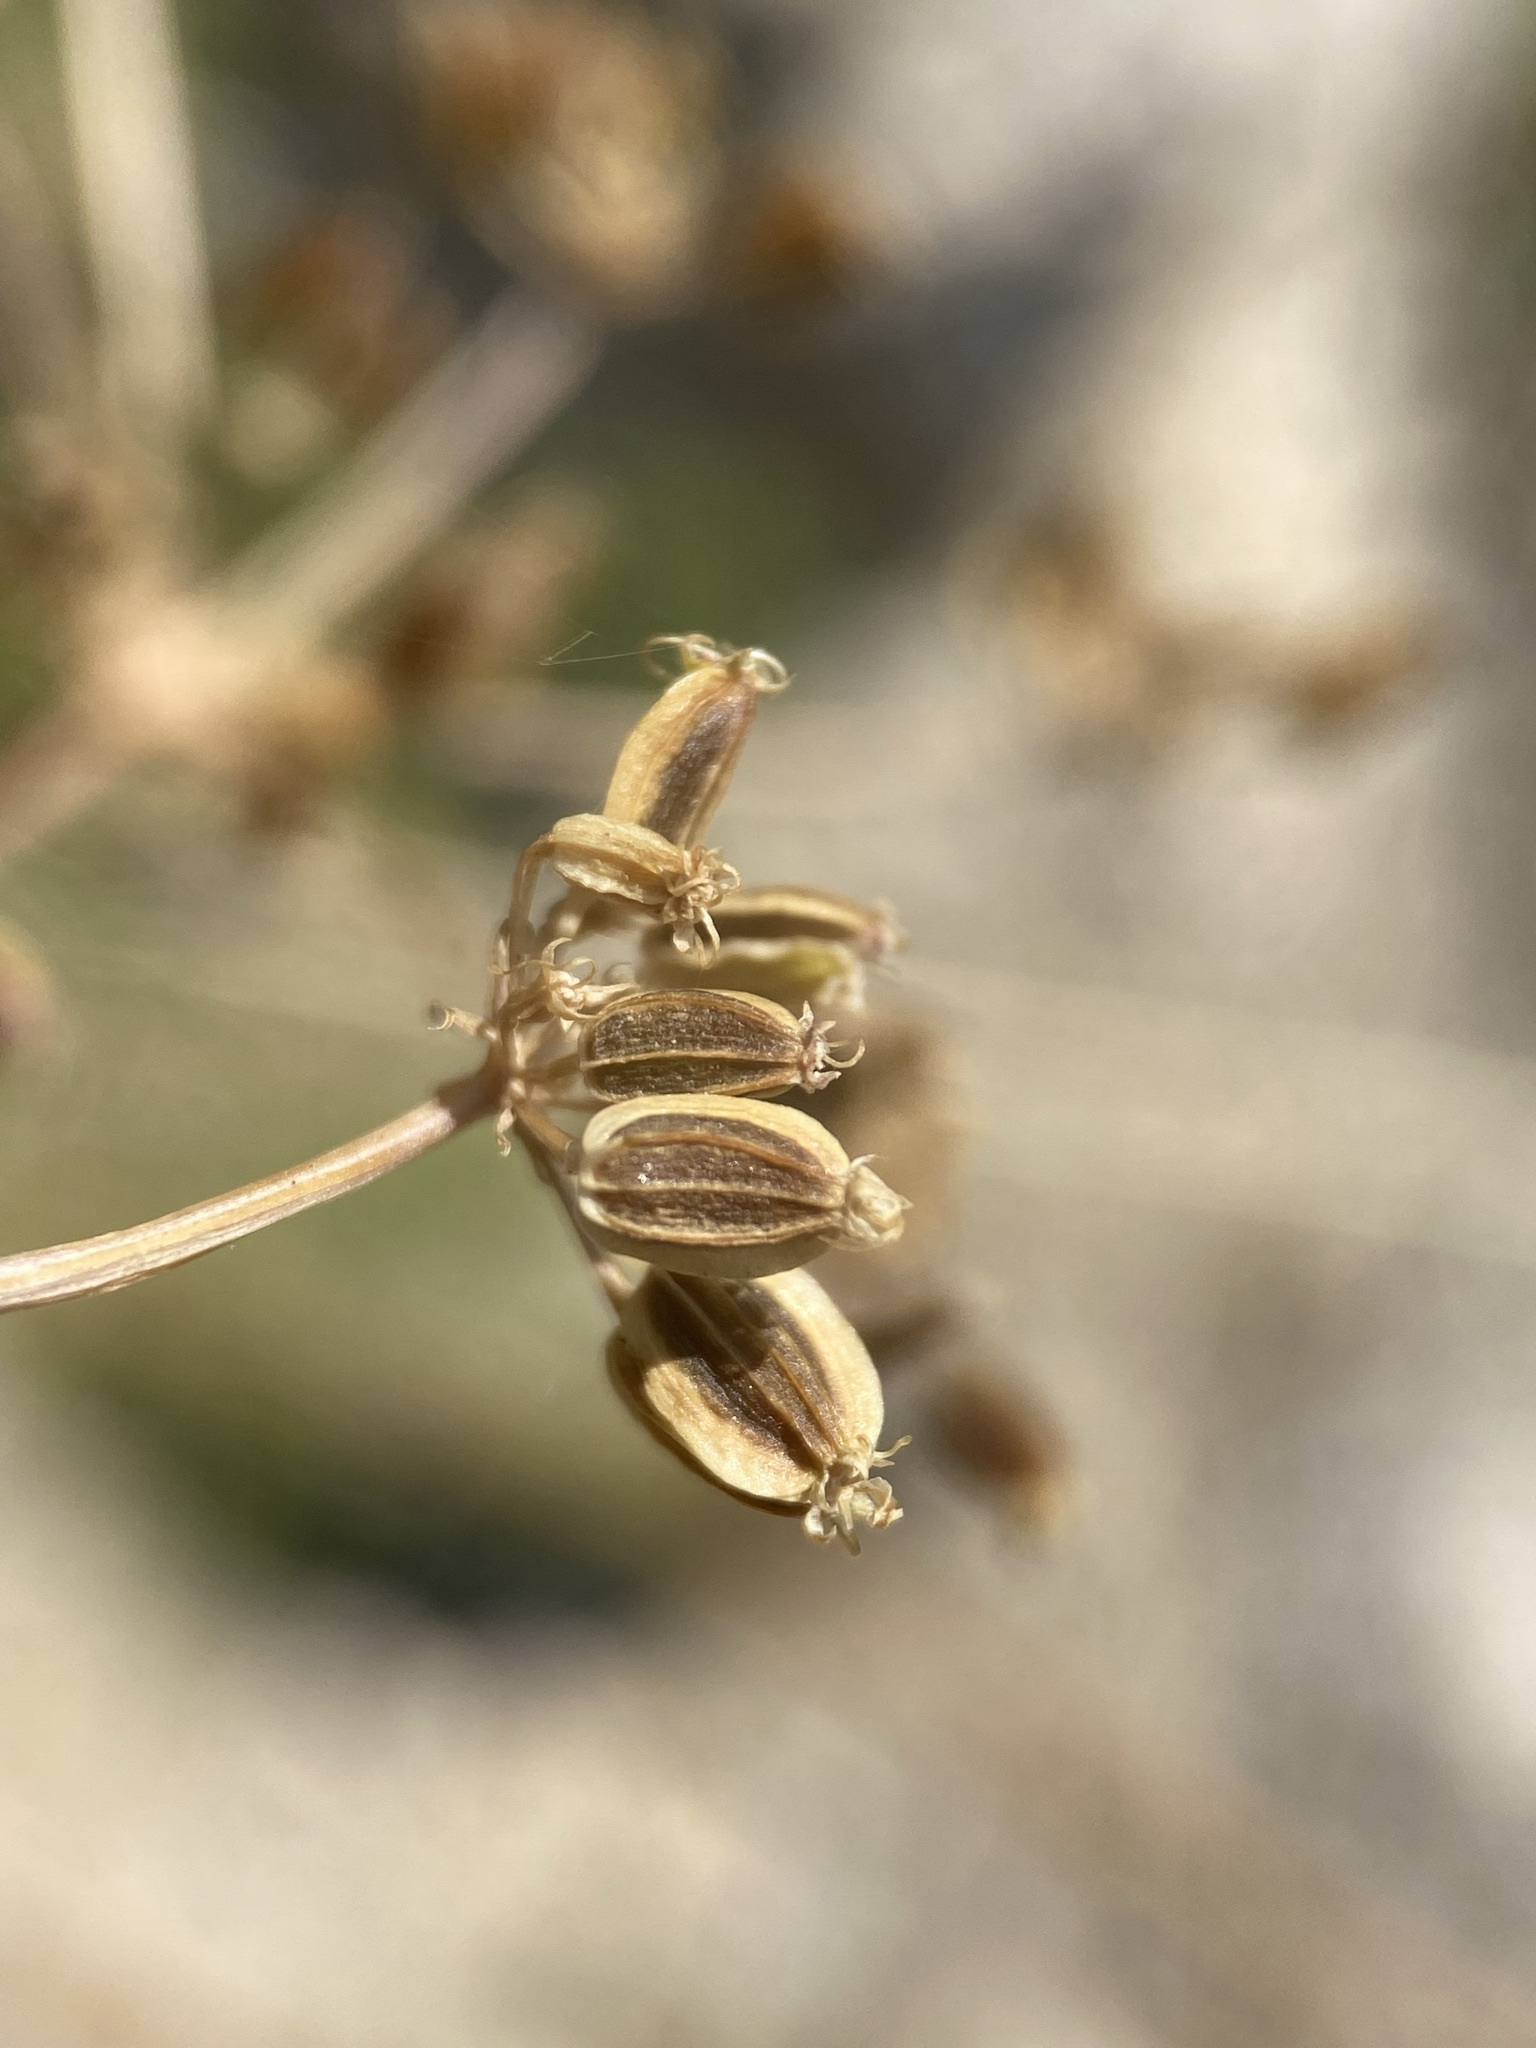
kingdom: Plantae
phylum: Tracheophyta
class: Magnoliopsida
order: Apiales
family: Apiaceae
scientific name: Apiaceae
